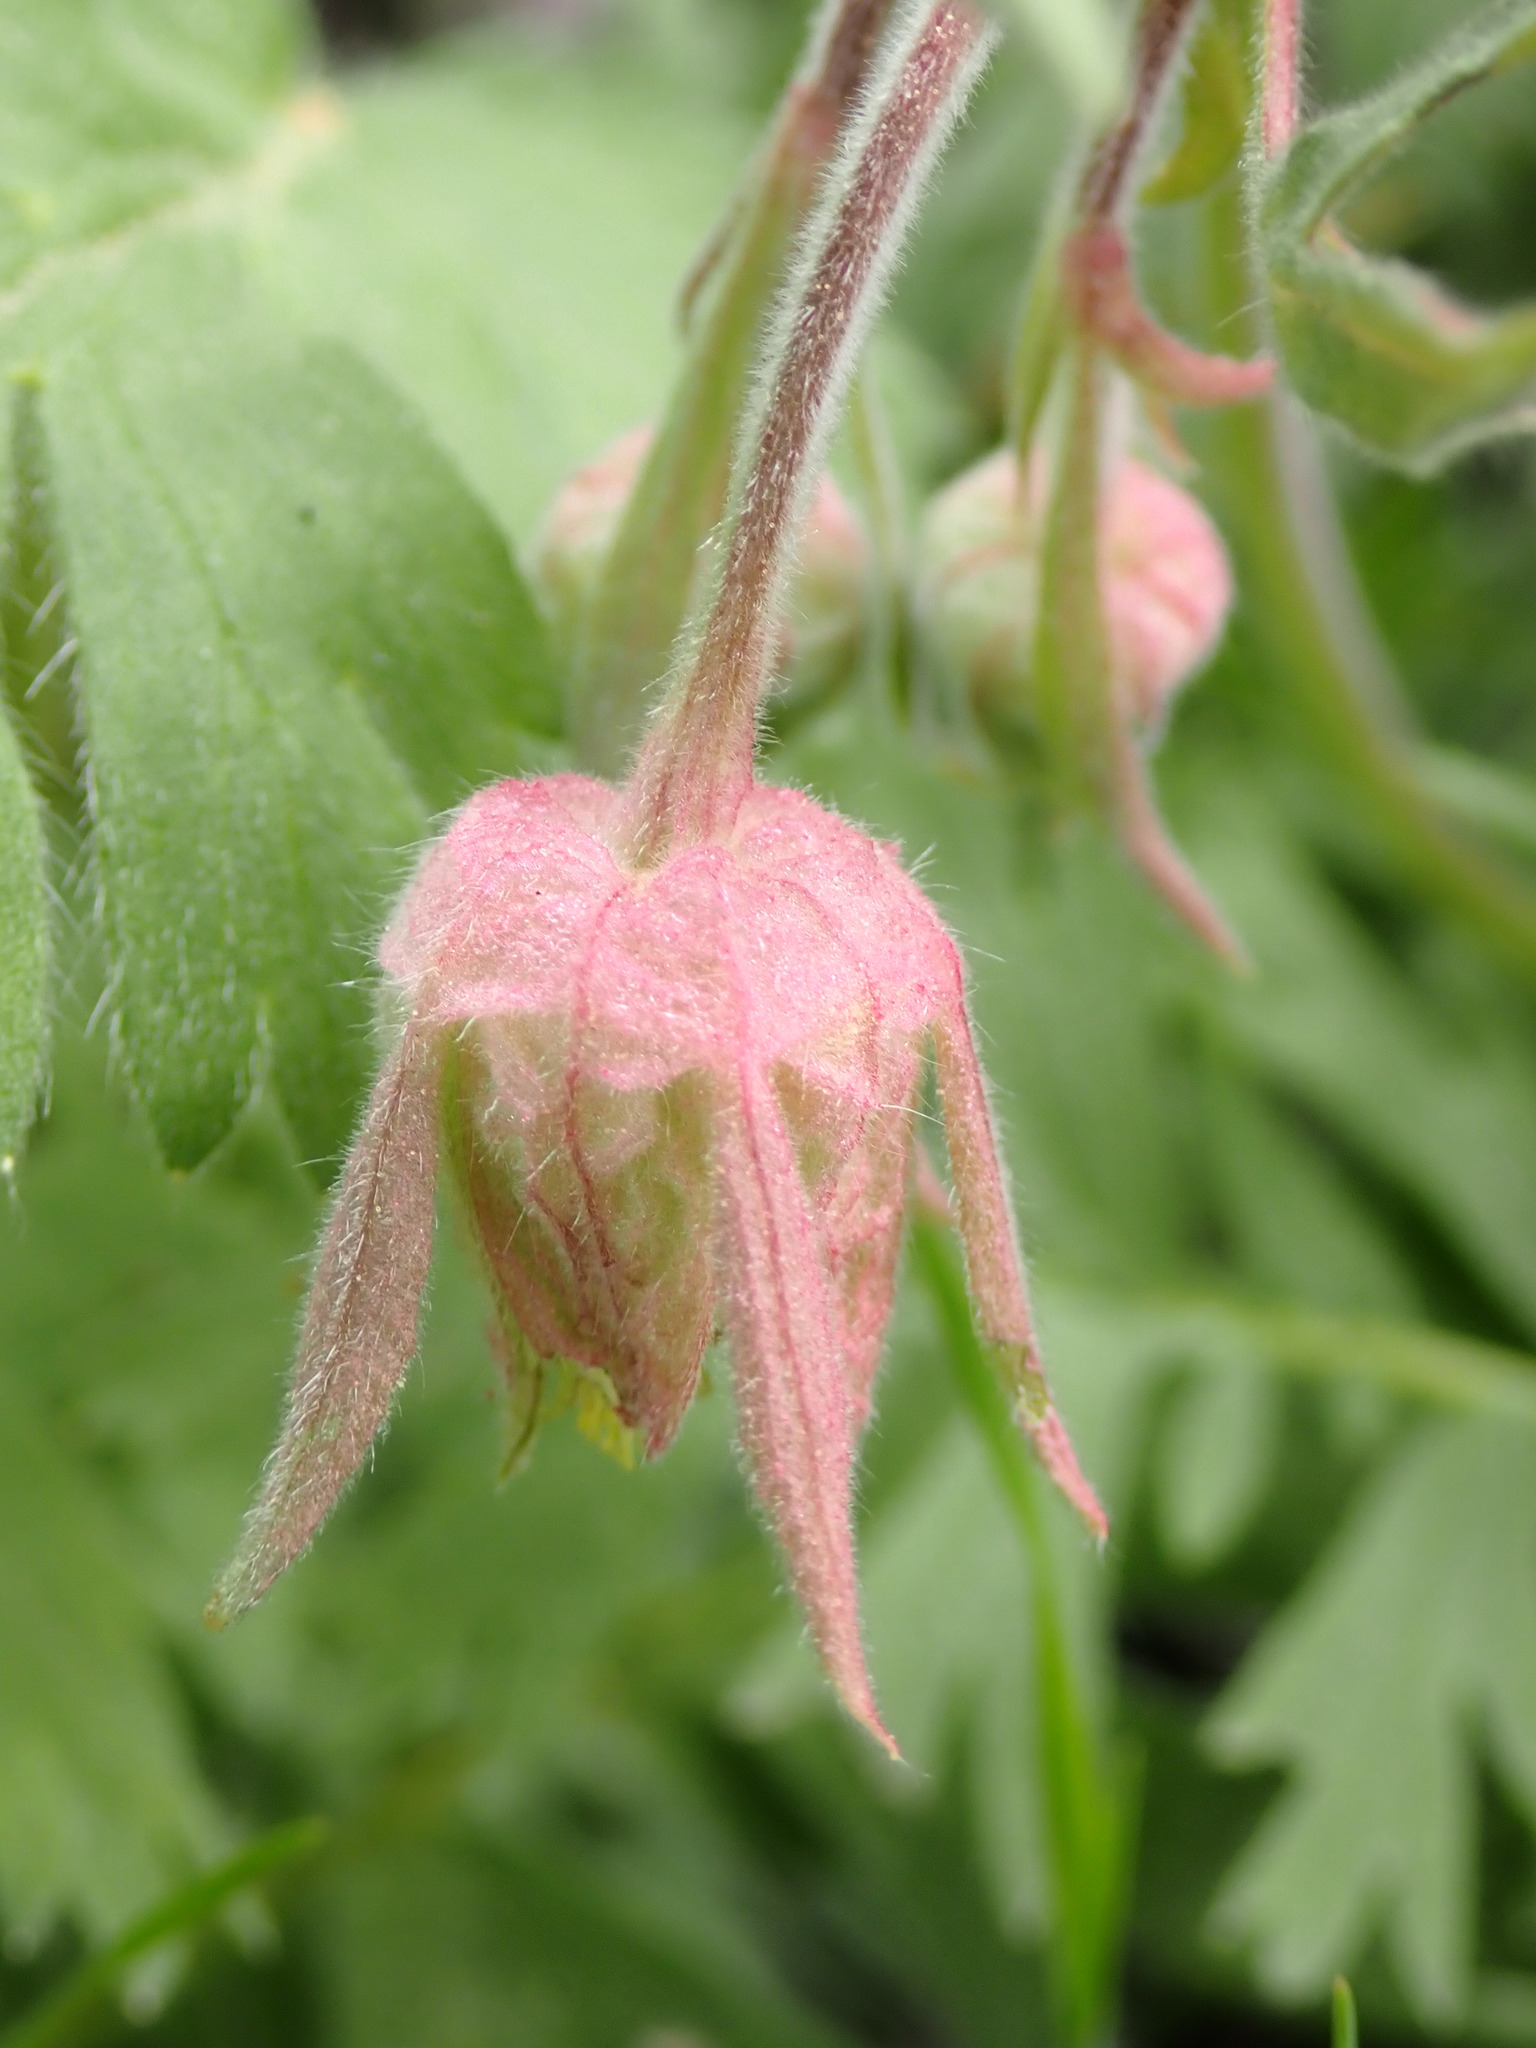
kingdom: Plantae
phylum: Tracheophyta
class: Magnoliopsida
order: Rosales
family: Rosaceae
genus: Geum
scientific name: Geum triflorum
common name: Old man's whiskers
